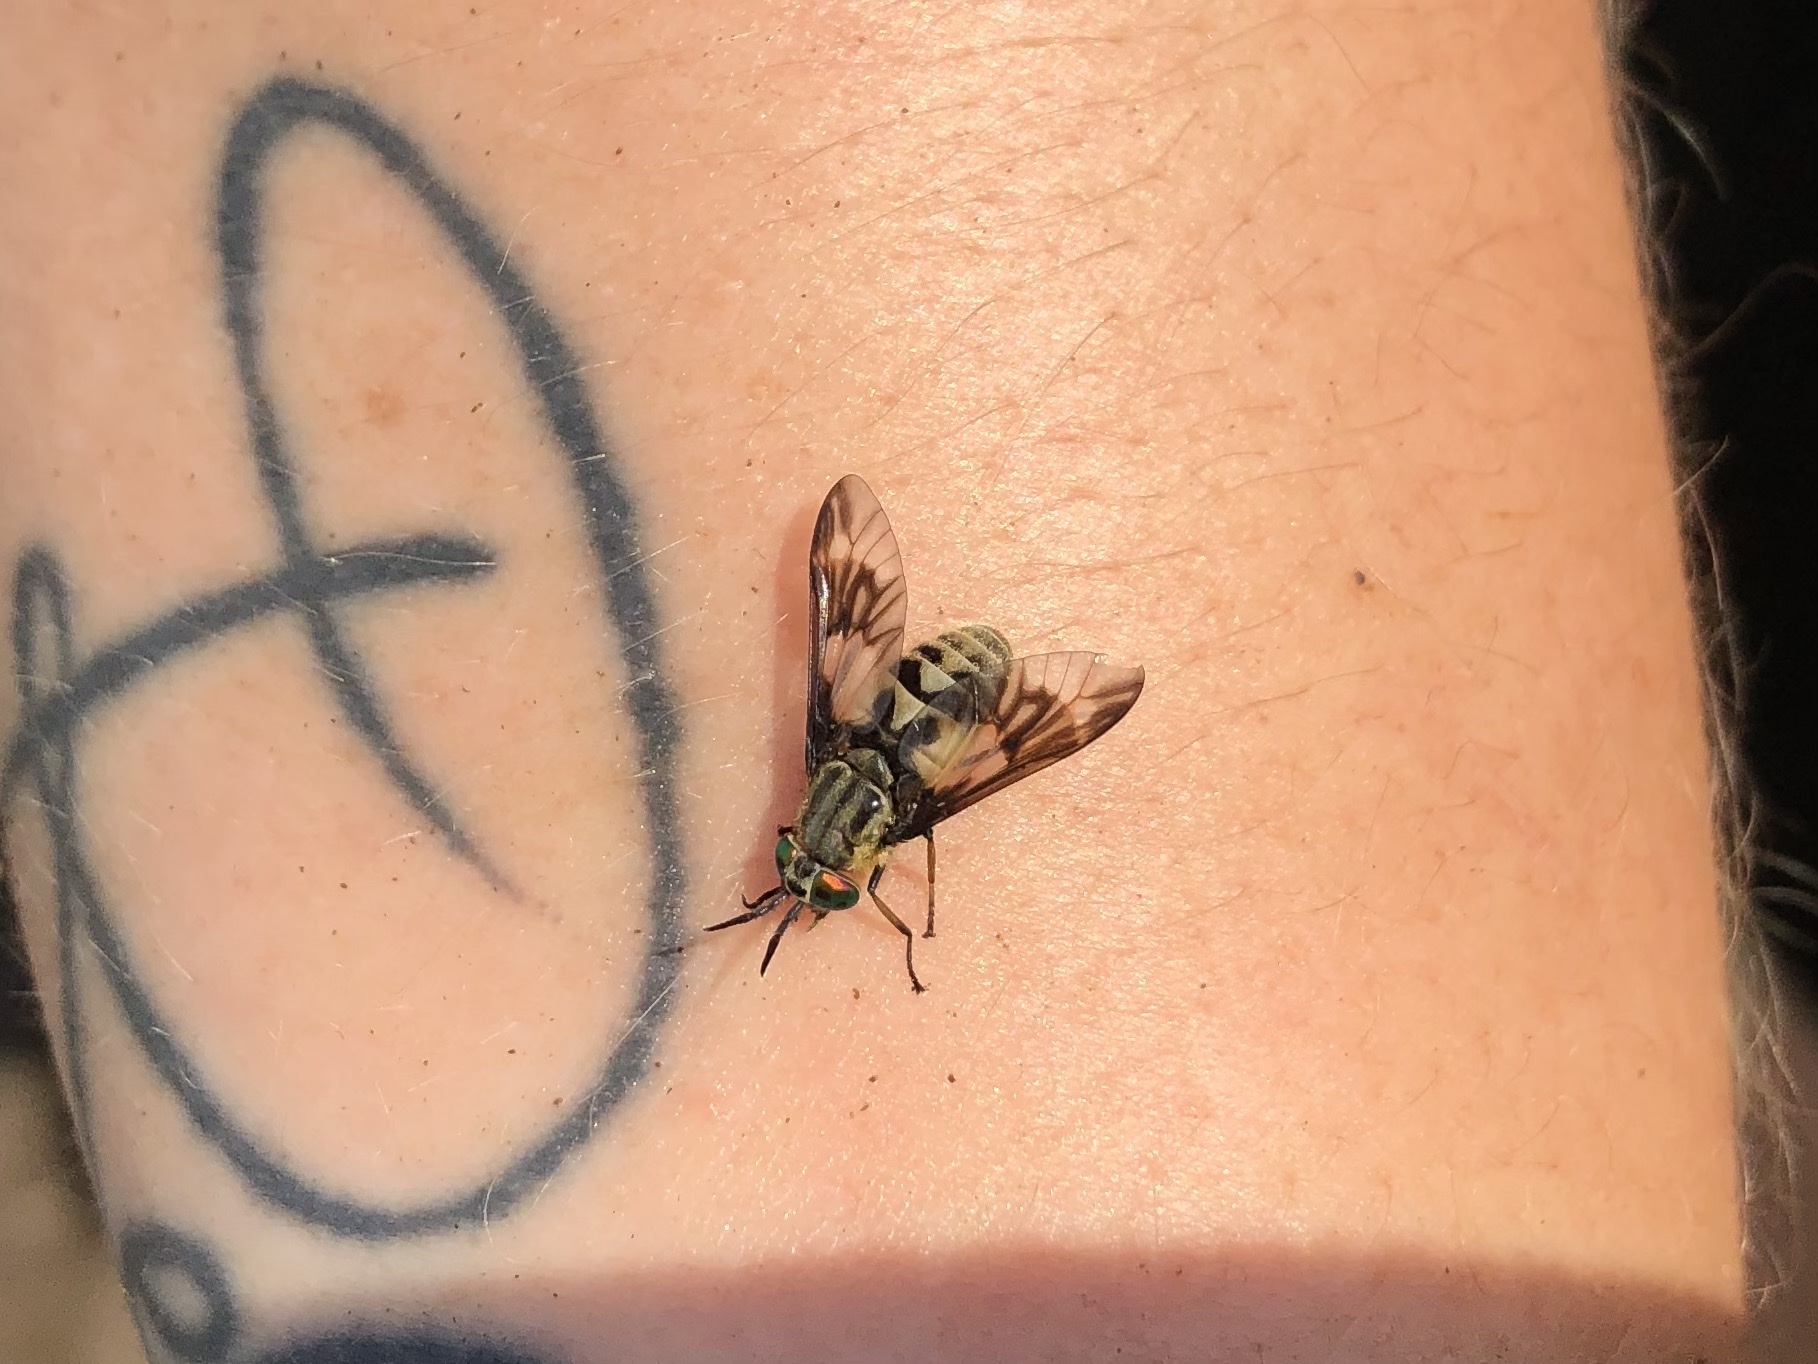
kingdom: Animalia
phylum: Arthropoda
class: Insecta
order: Diptera
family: Tabanidae
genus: Chrysops
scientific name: Chrysops relictus
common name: Twin-lobed deerfly
